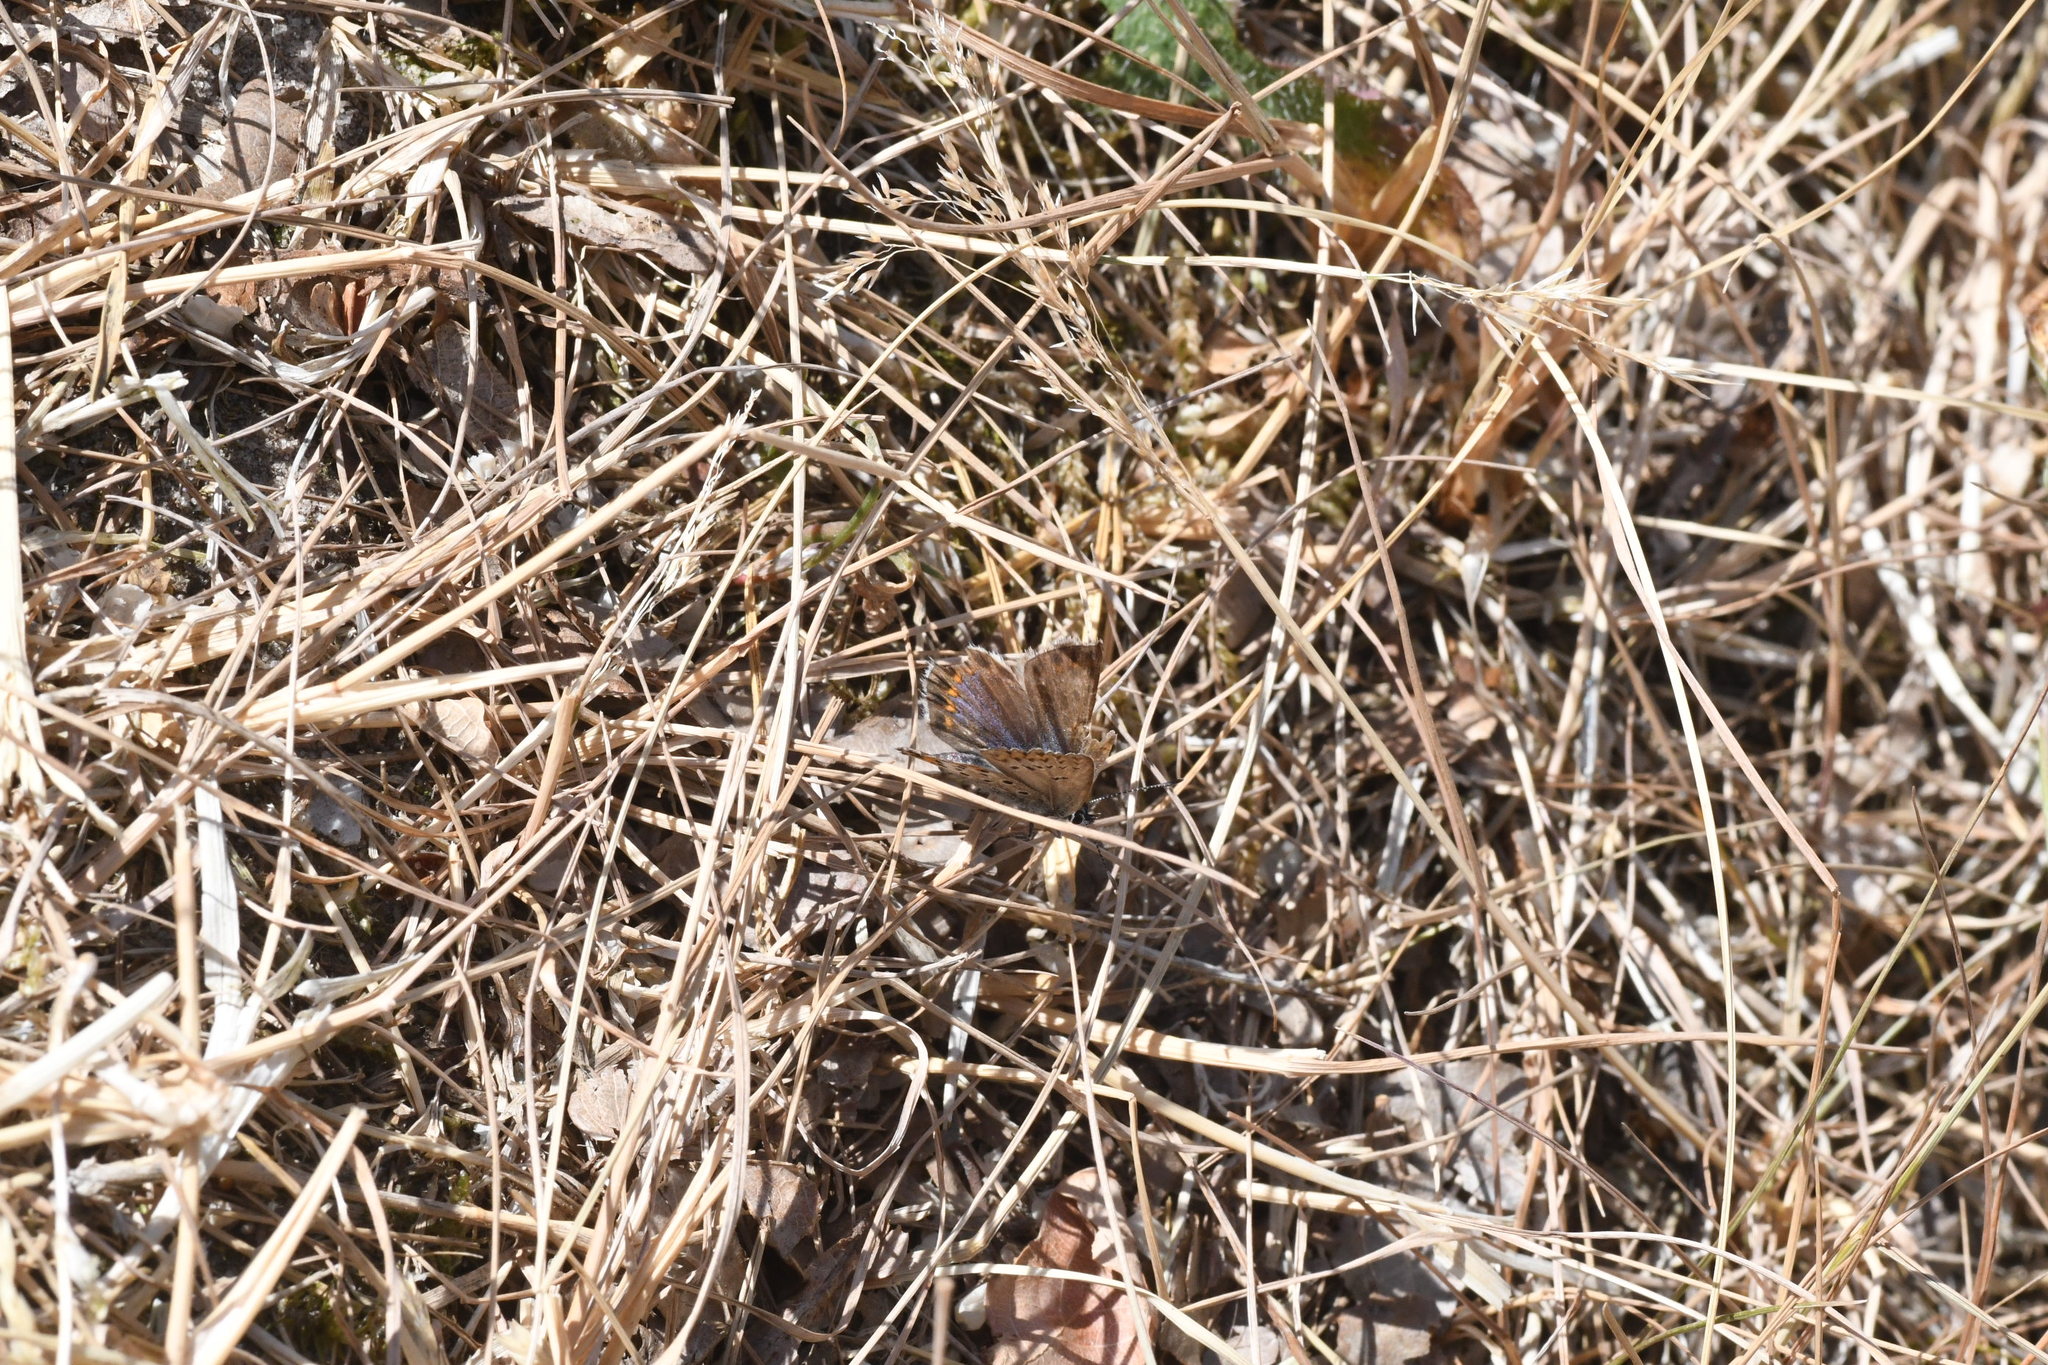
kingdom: Animalia
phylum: Arthropoda
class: Insecta
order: Lepidoptera
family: Lycaenidae
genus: Lycaeides
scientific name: Lycaeides idas
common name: Northern blue
